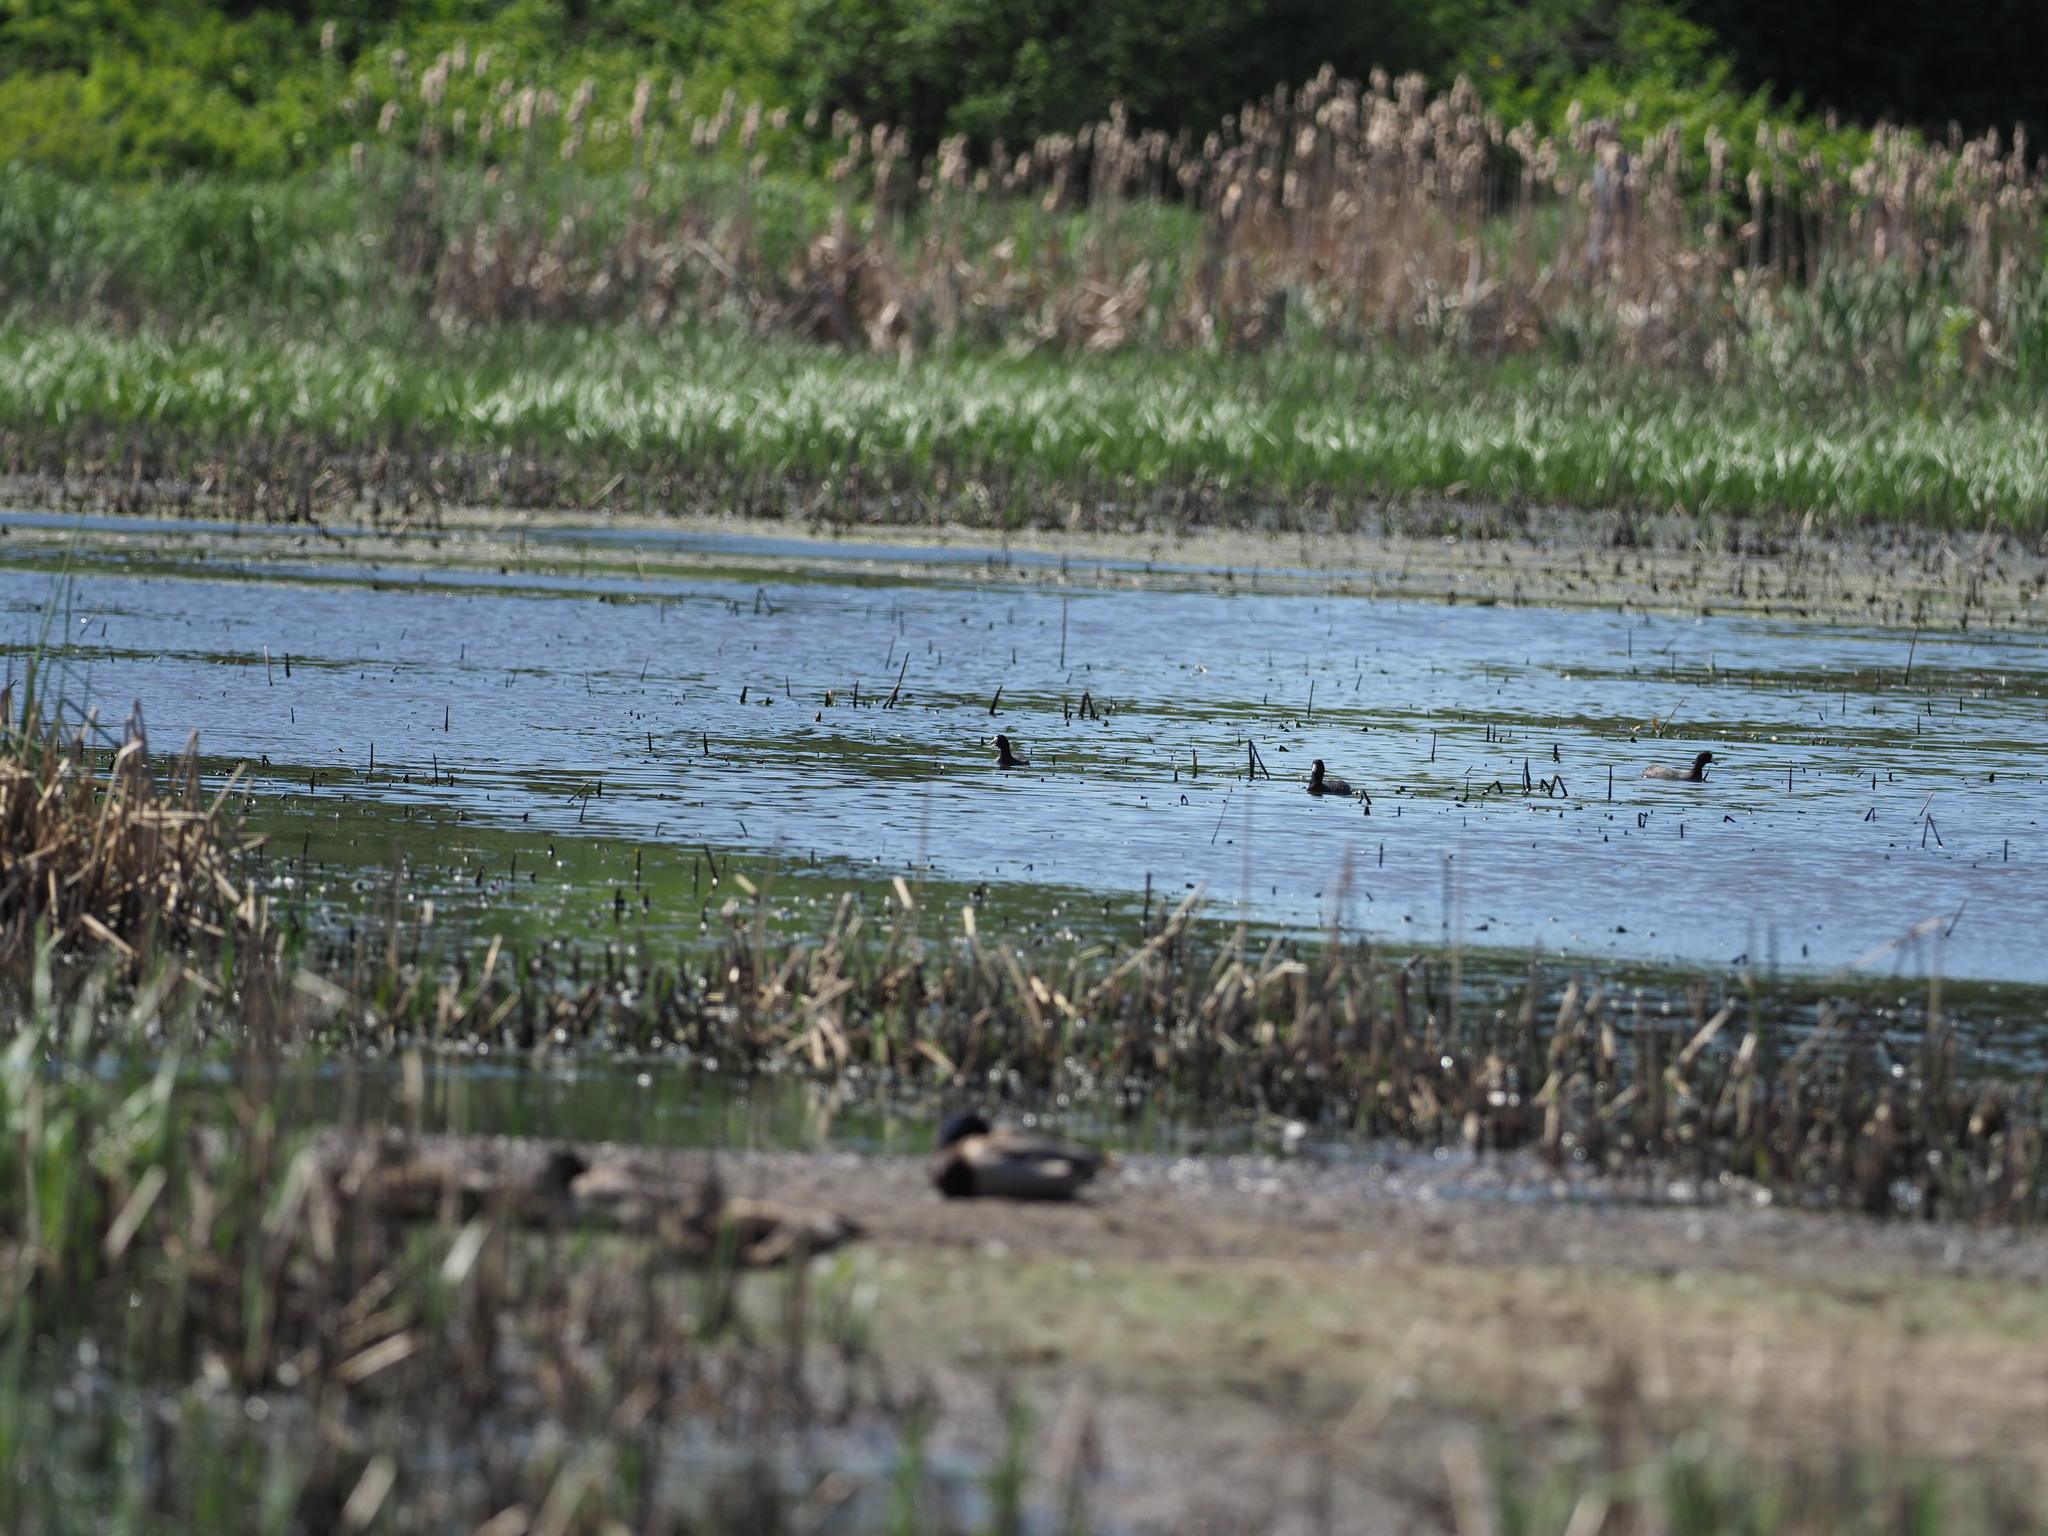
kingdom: Animalia
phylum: Chordata
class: Aves
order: Gruiformes
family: Rallidae
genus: Fulica
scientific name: Fulica americana
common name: American coot
